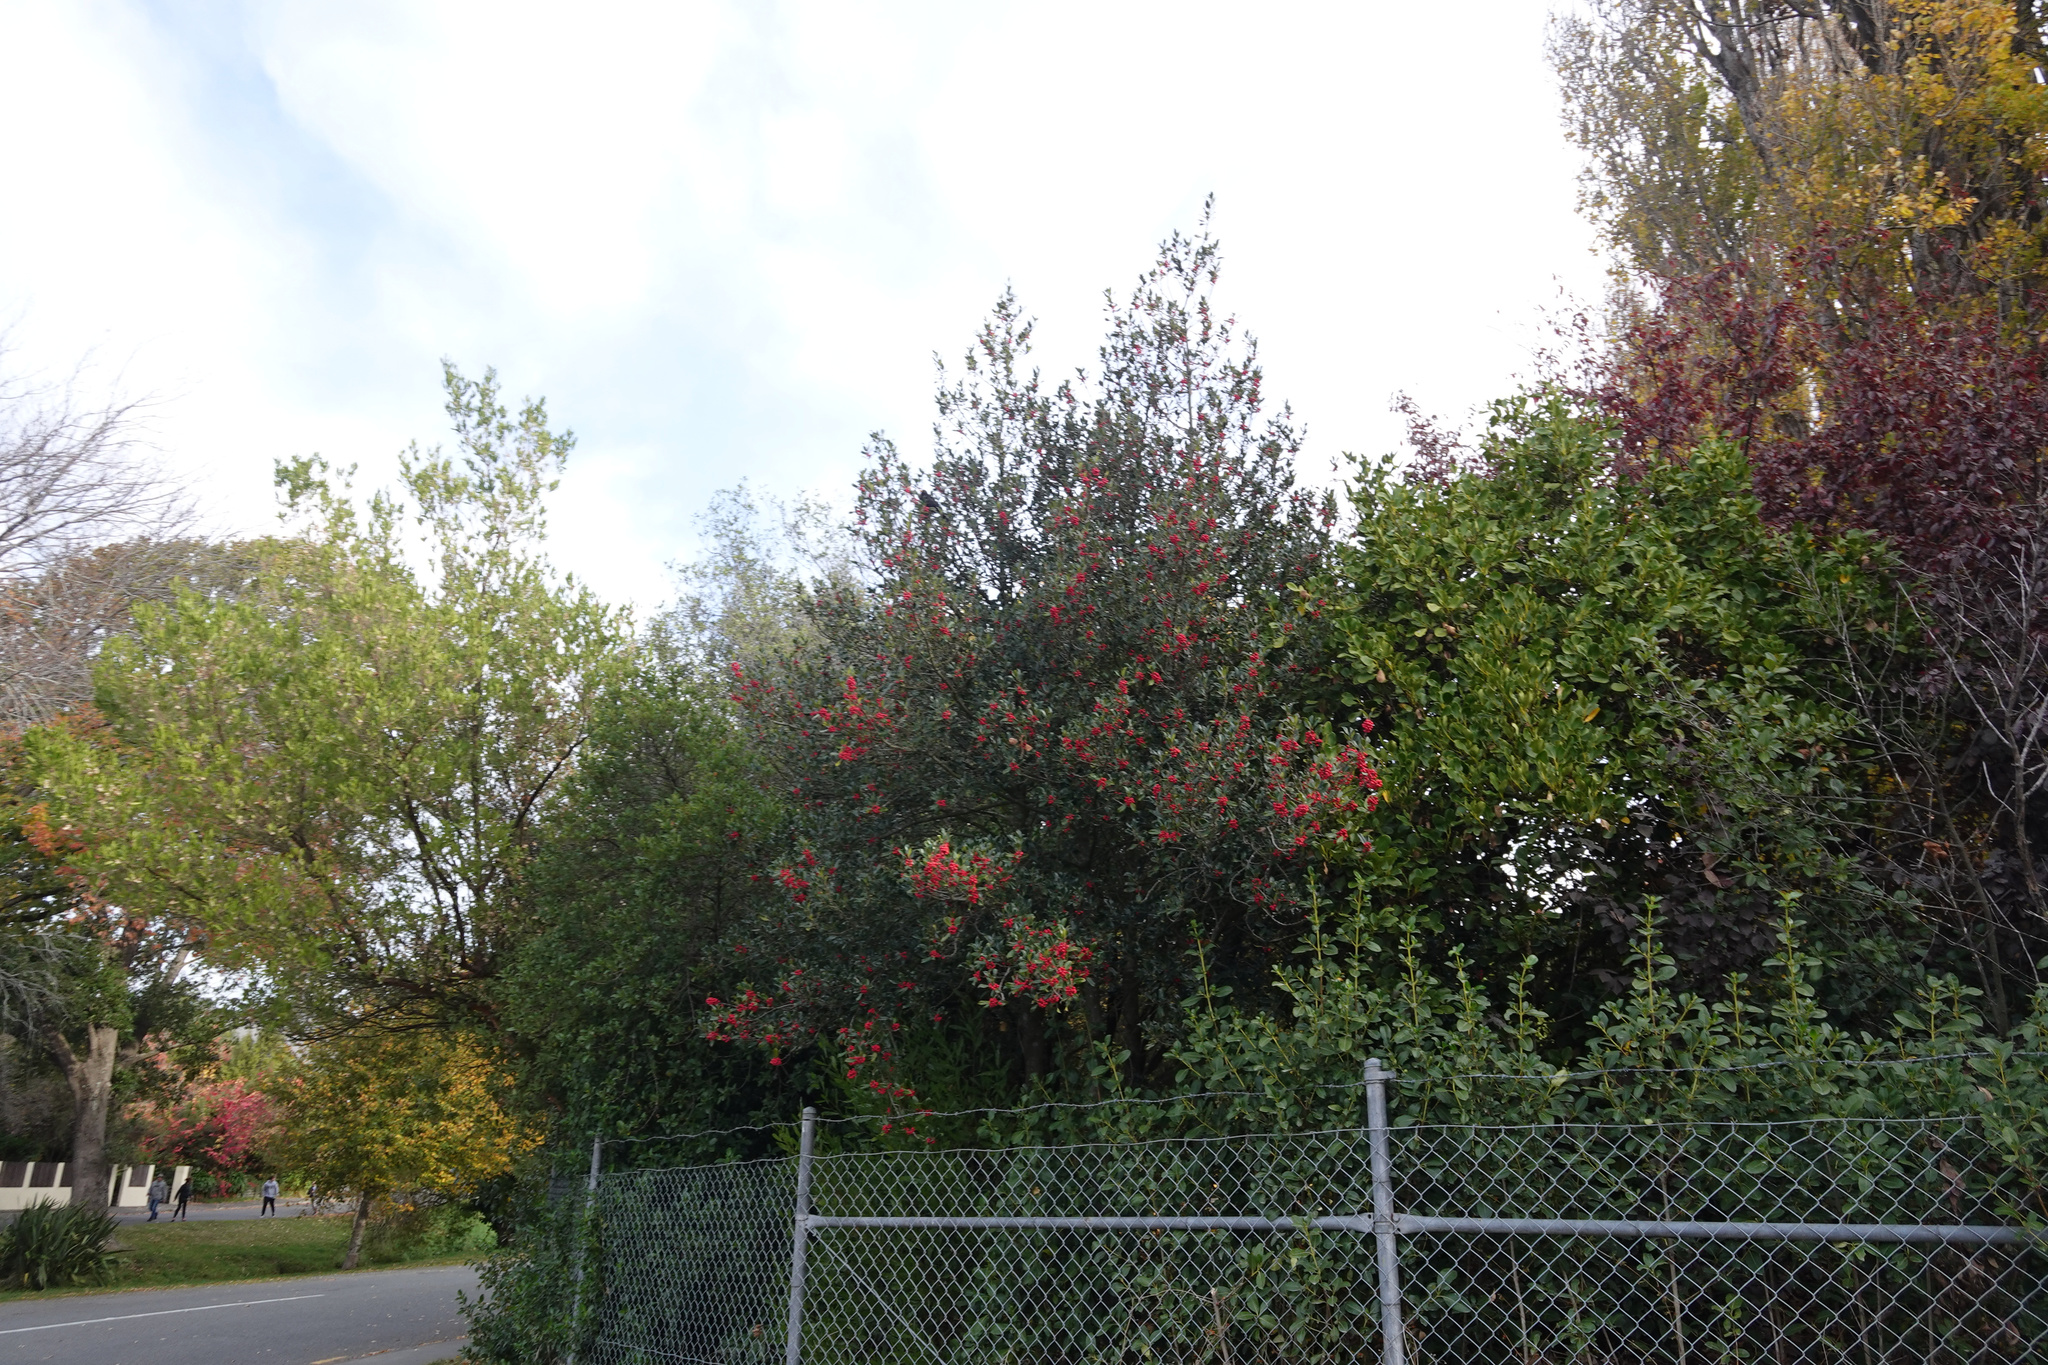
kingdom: Plantae
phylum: Tracheophyta
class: Magnoliopsida
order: Aquifoliales
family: Aquifoliaceae
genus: Ilex
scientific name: Ilex aquifolium
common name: English holly
